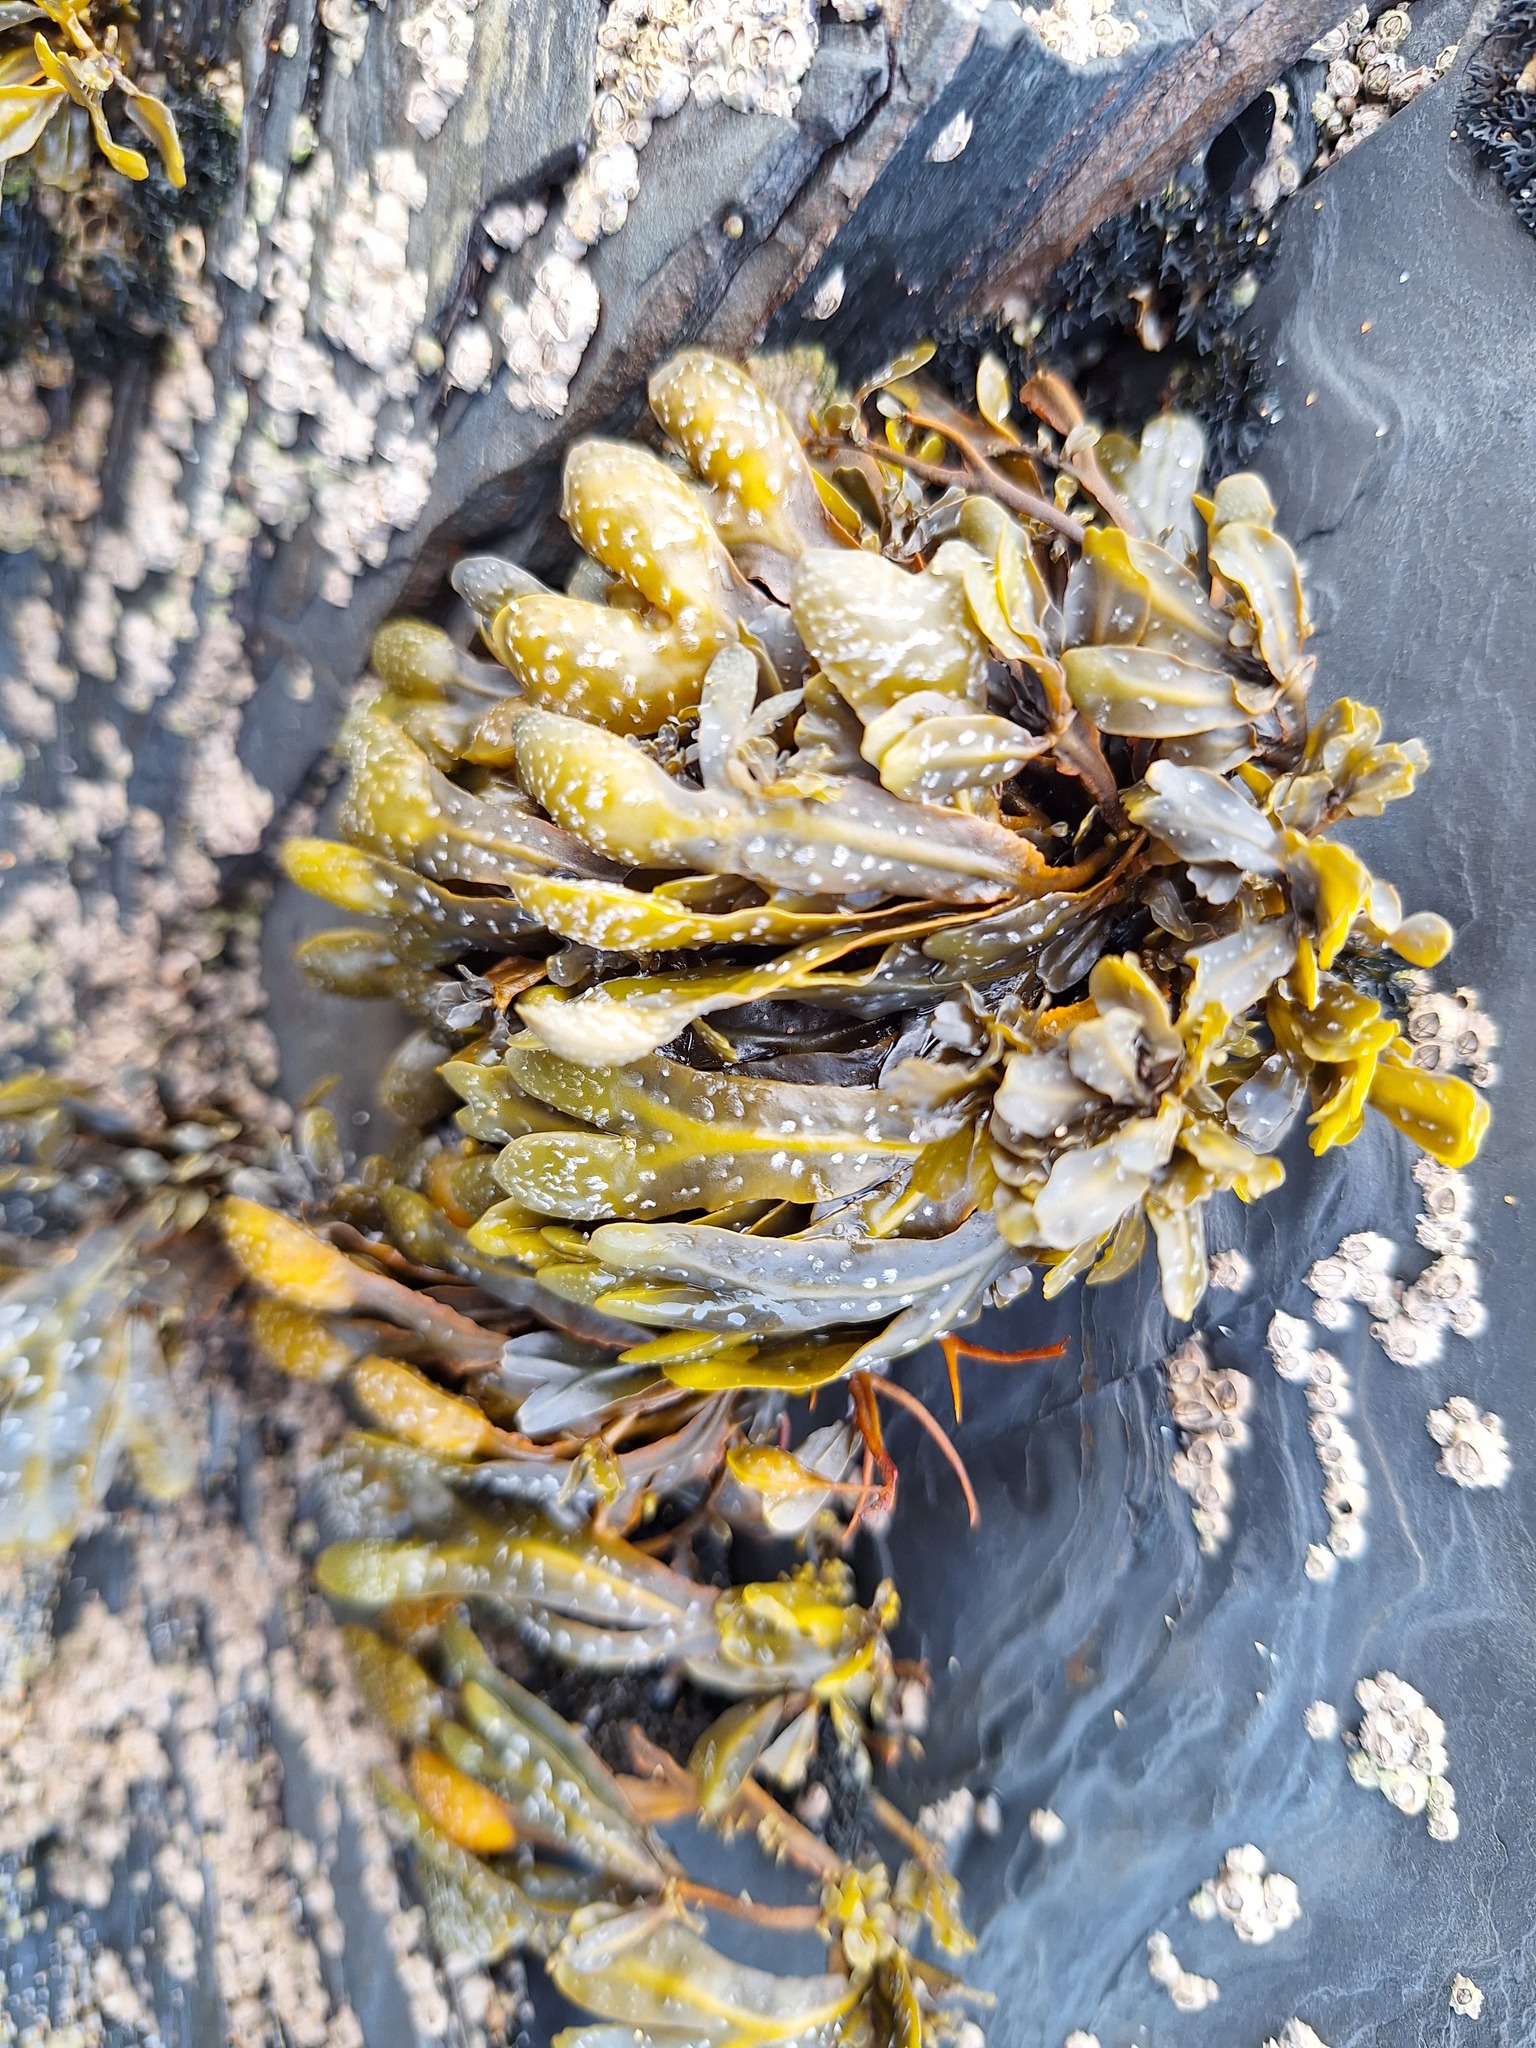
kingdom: Chromista
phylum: Ochrophyta
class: Phaeophyceae
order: Fucales
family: Fucaceae
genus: Fucus
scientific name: Fucus guiryi
